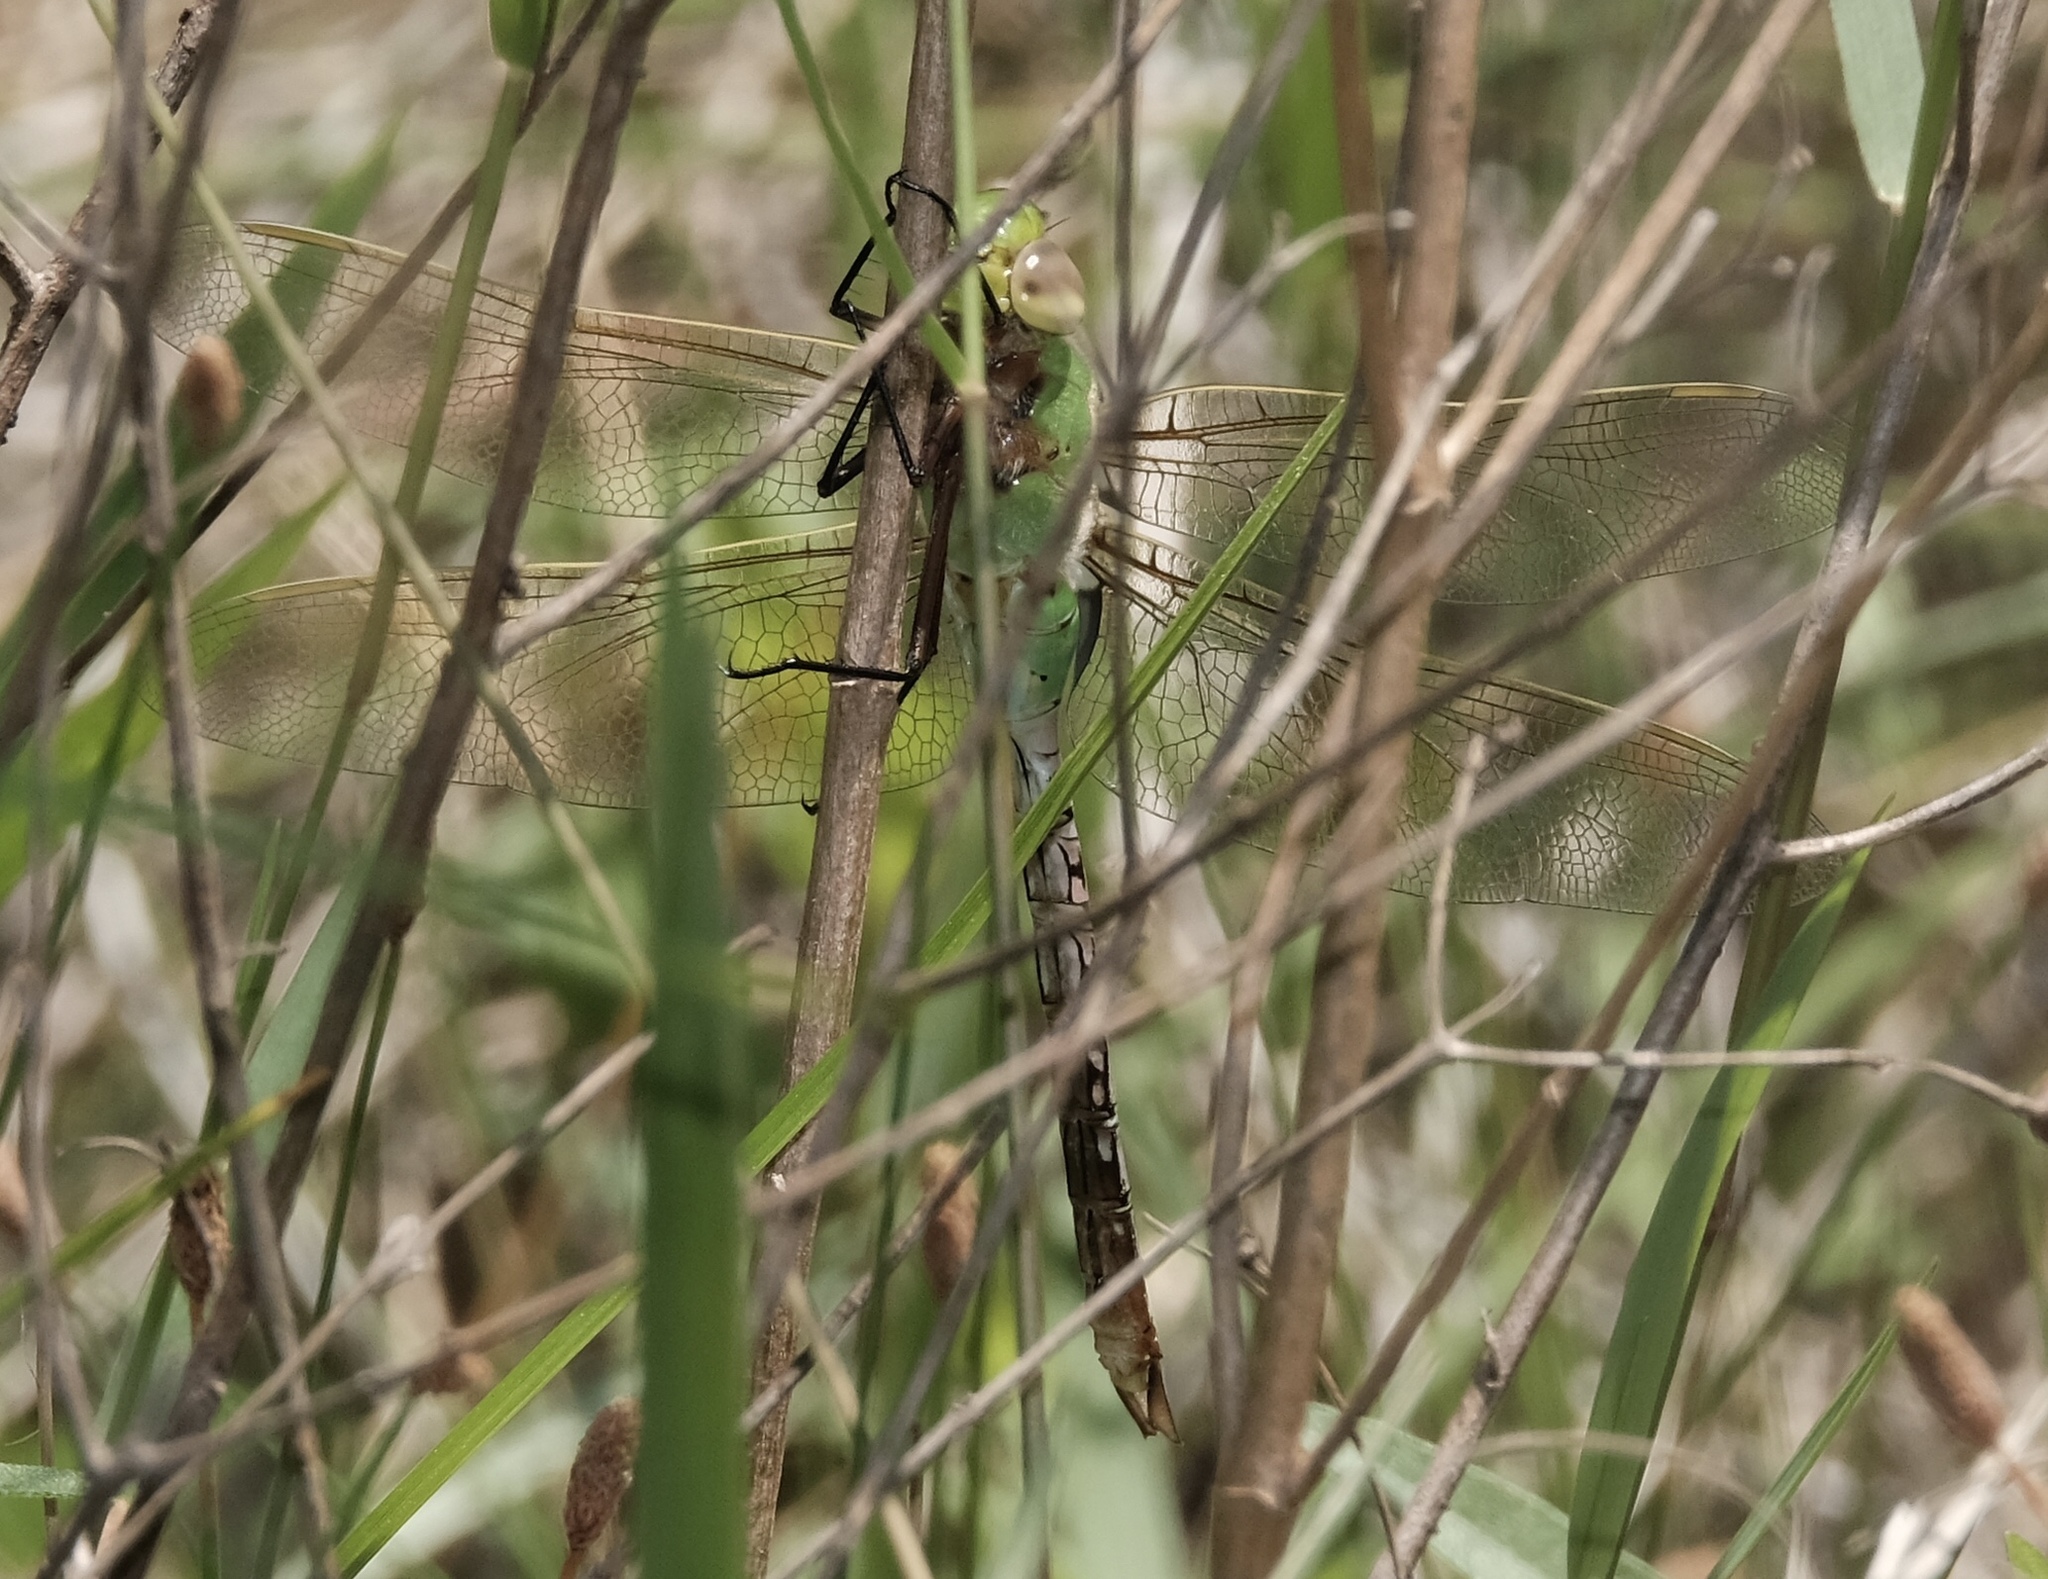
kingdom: Animalia
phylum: Arthropoda
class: Insecta
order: Odonata
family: Aeshnidae
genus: Anax
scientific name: Anax junius
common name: Common green darner
